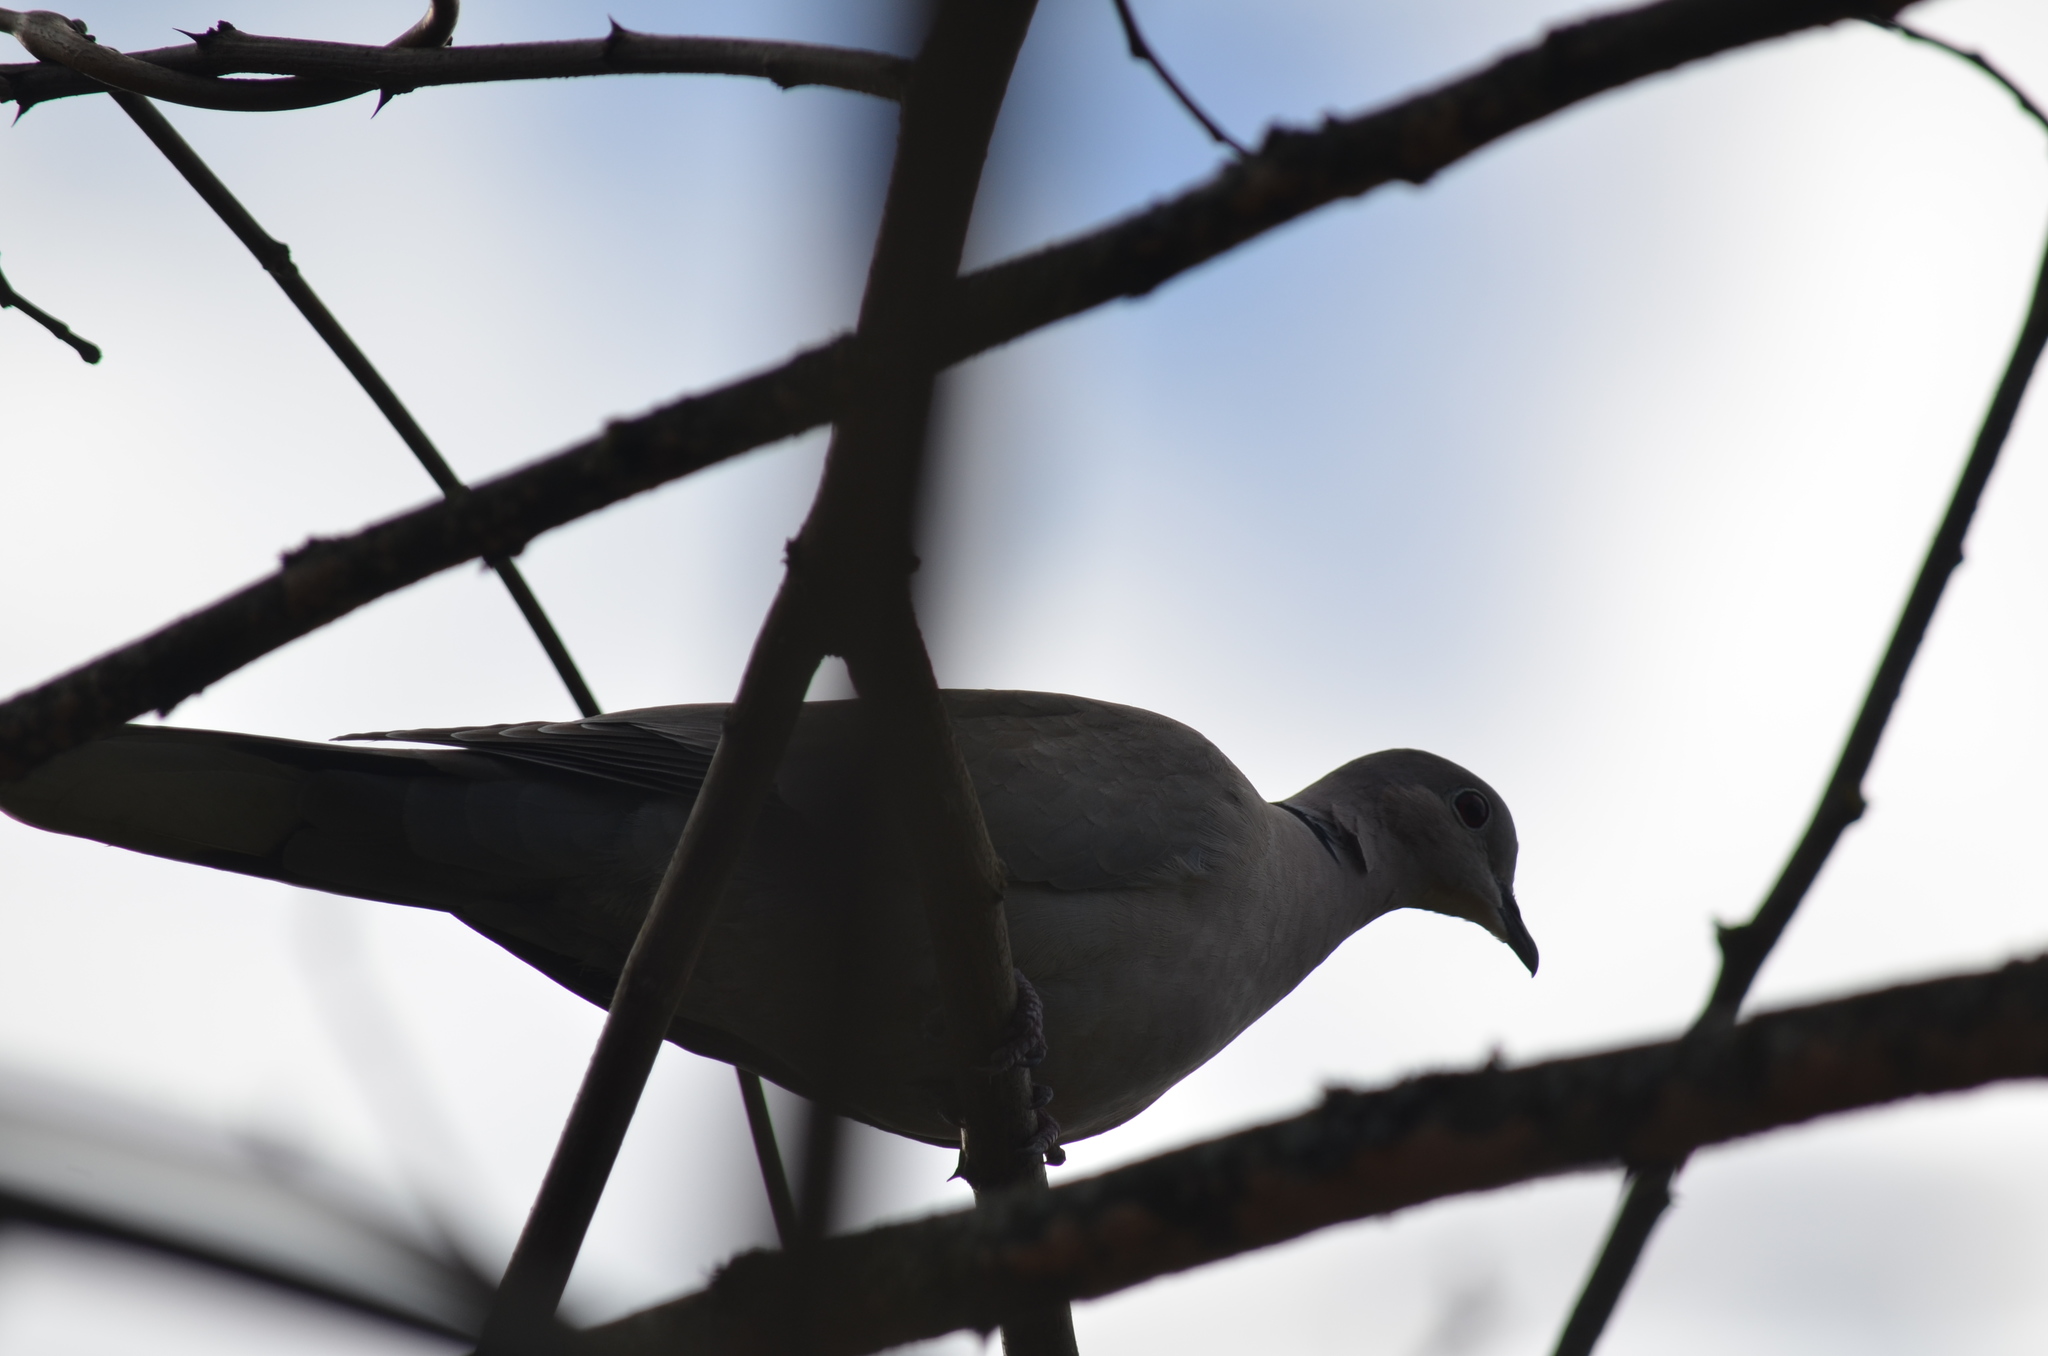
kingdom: Animalia
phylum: Chordata
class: Aves
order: Columbiformes
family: Columbidae
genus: Streptopelia
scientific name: Streptopelia decaocto
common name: Eurasian collared dove
